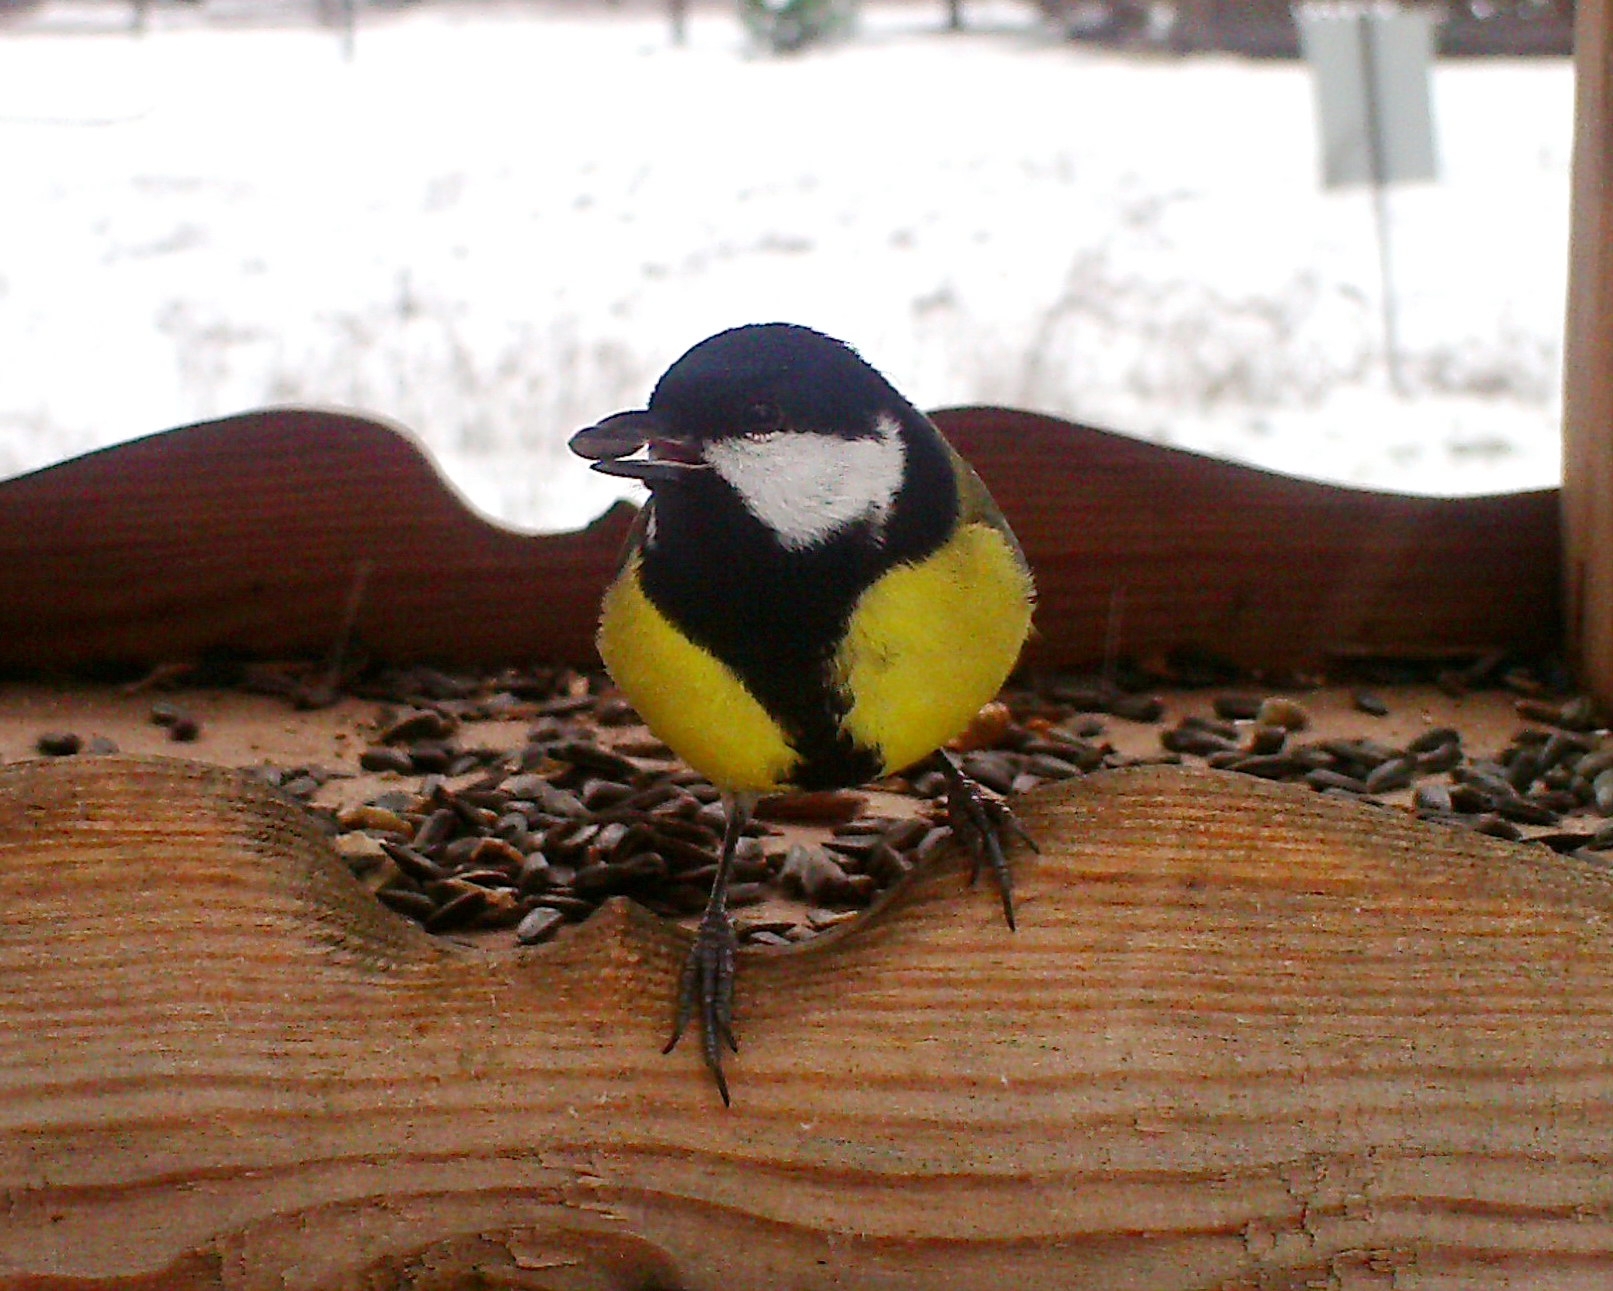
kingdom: Animalia
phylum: Chordata
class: Aves
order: Passeriformes
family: Paridae
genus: Parus
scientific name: Parus major
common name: Great tit
